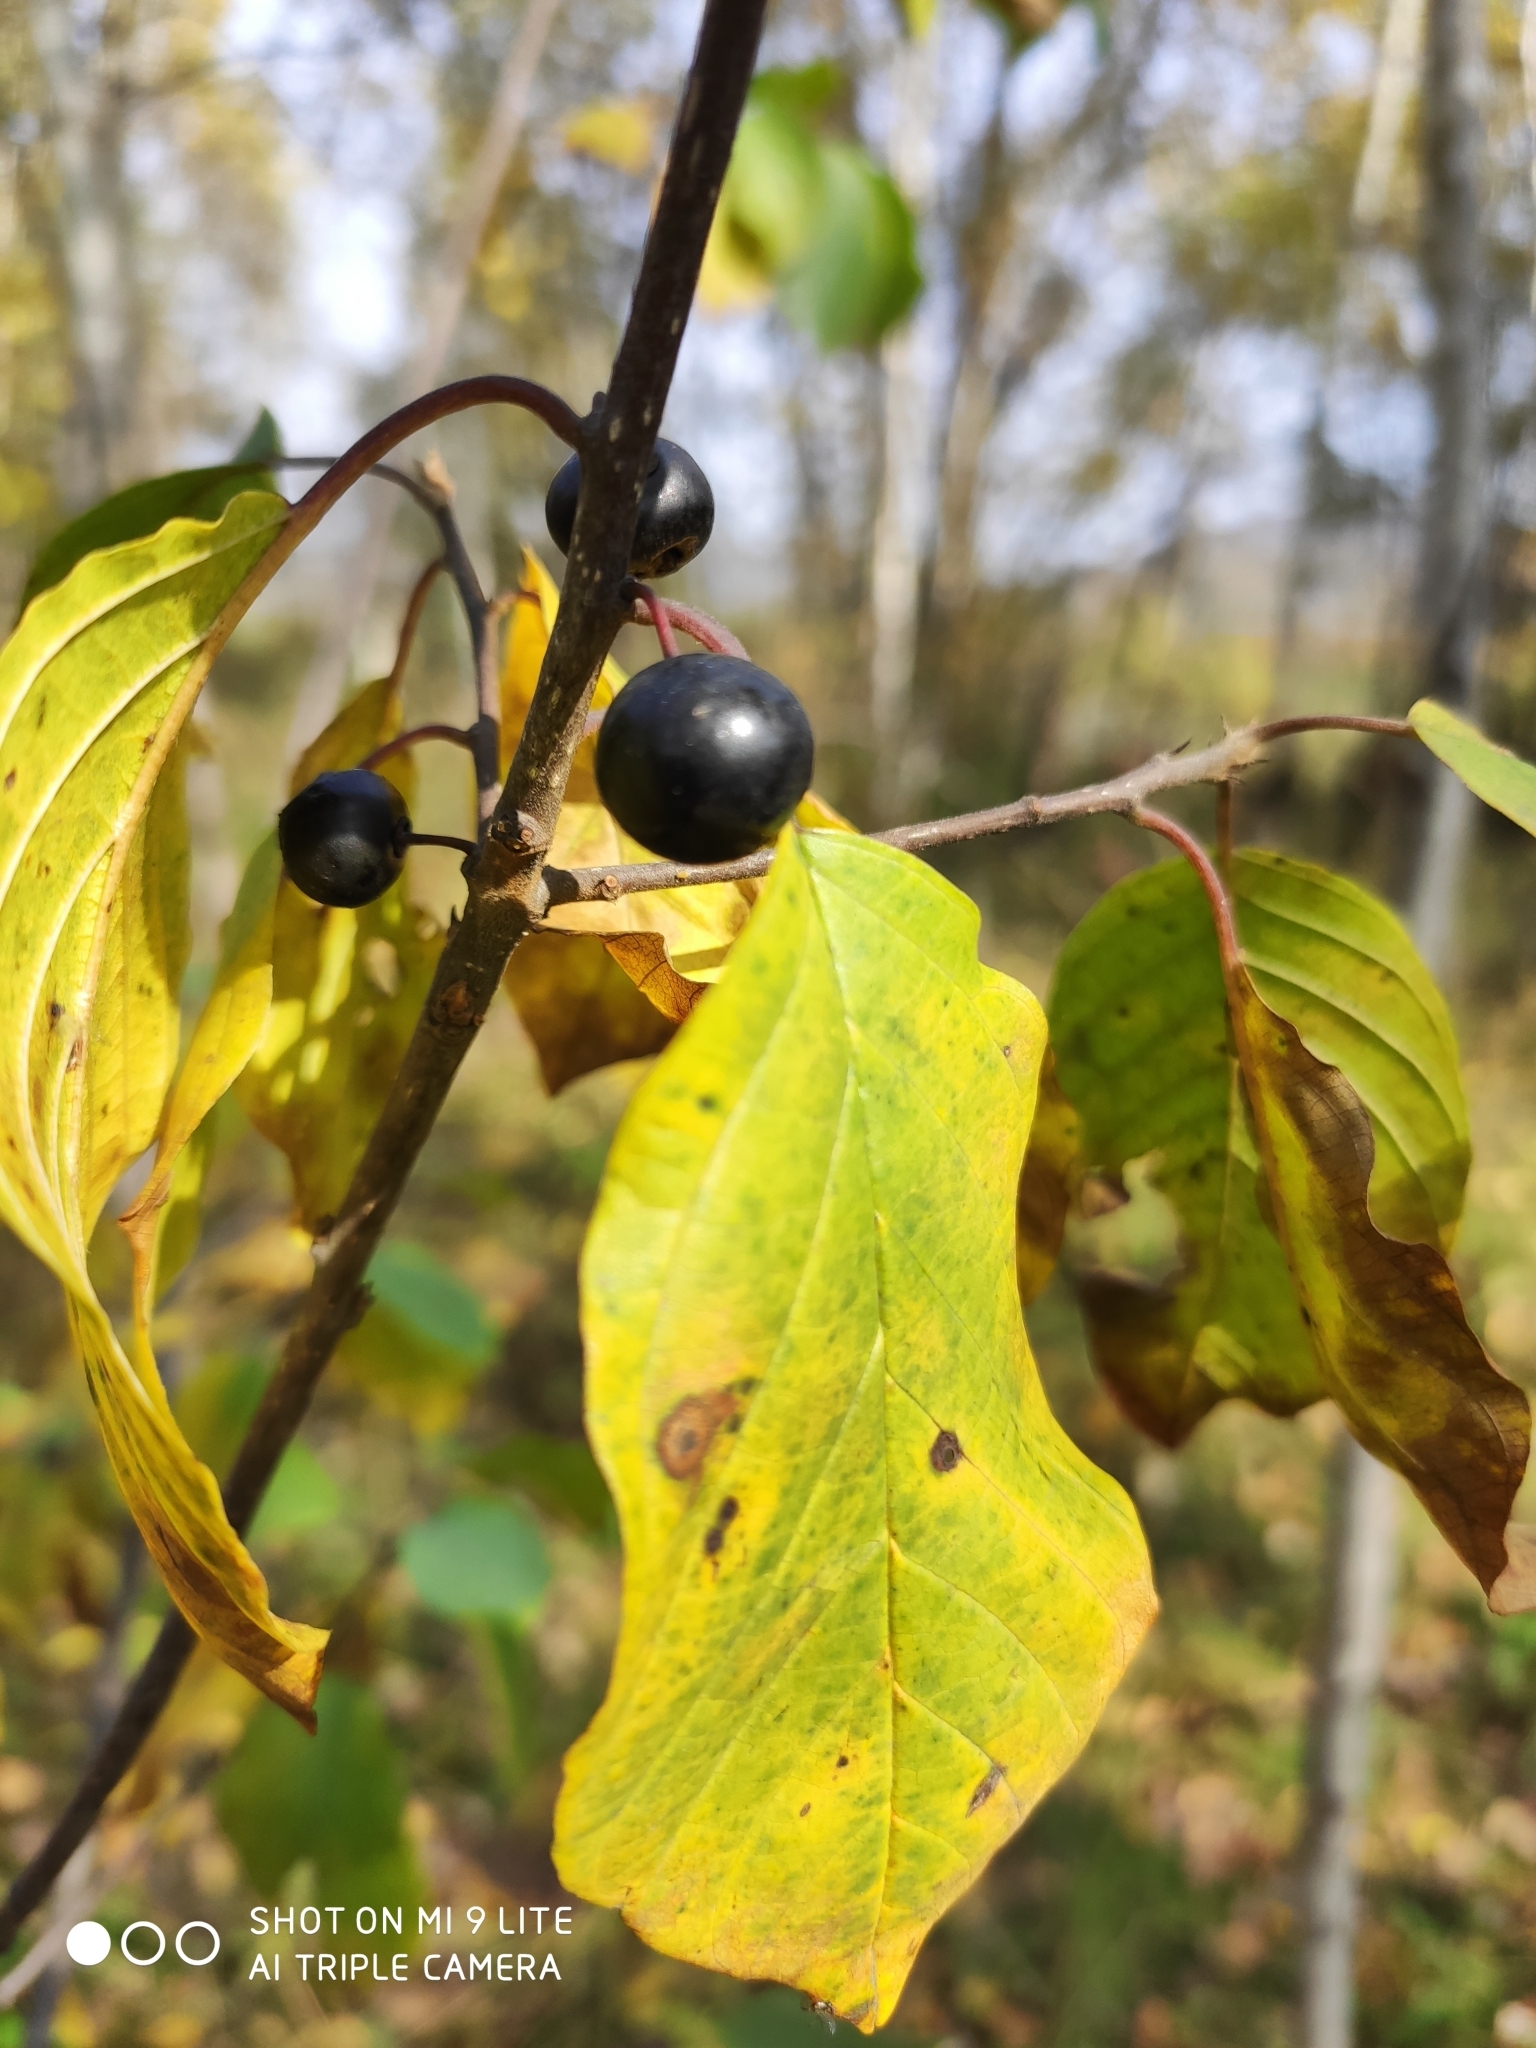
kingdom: Plantae
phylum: Tracheophyta
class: Magnoliopsida
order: Rosales
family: Rhamnaceae
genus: Frangula
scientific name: Frangula alnus
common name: Alder buckthorn
